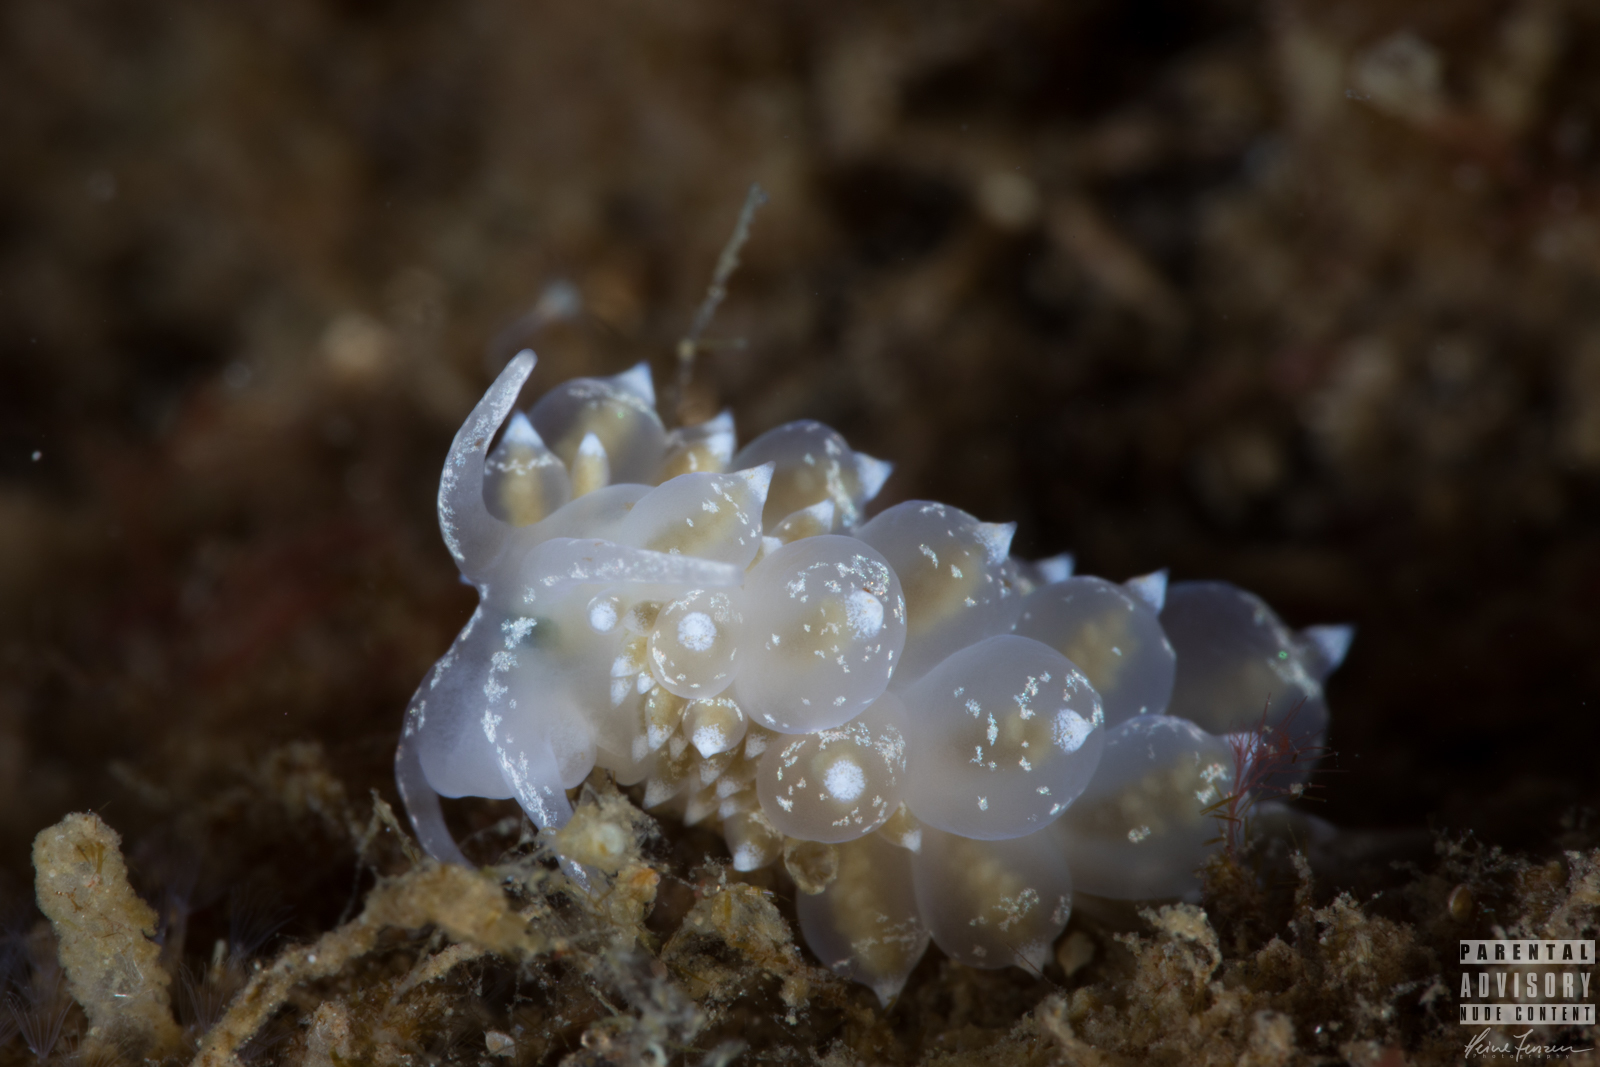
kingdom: Animalia
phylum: Mollusca
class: Gastropoda
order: Nudibranchia
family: Eubranchidae
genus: Amphorina
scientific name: Amphorina pallida
